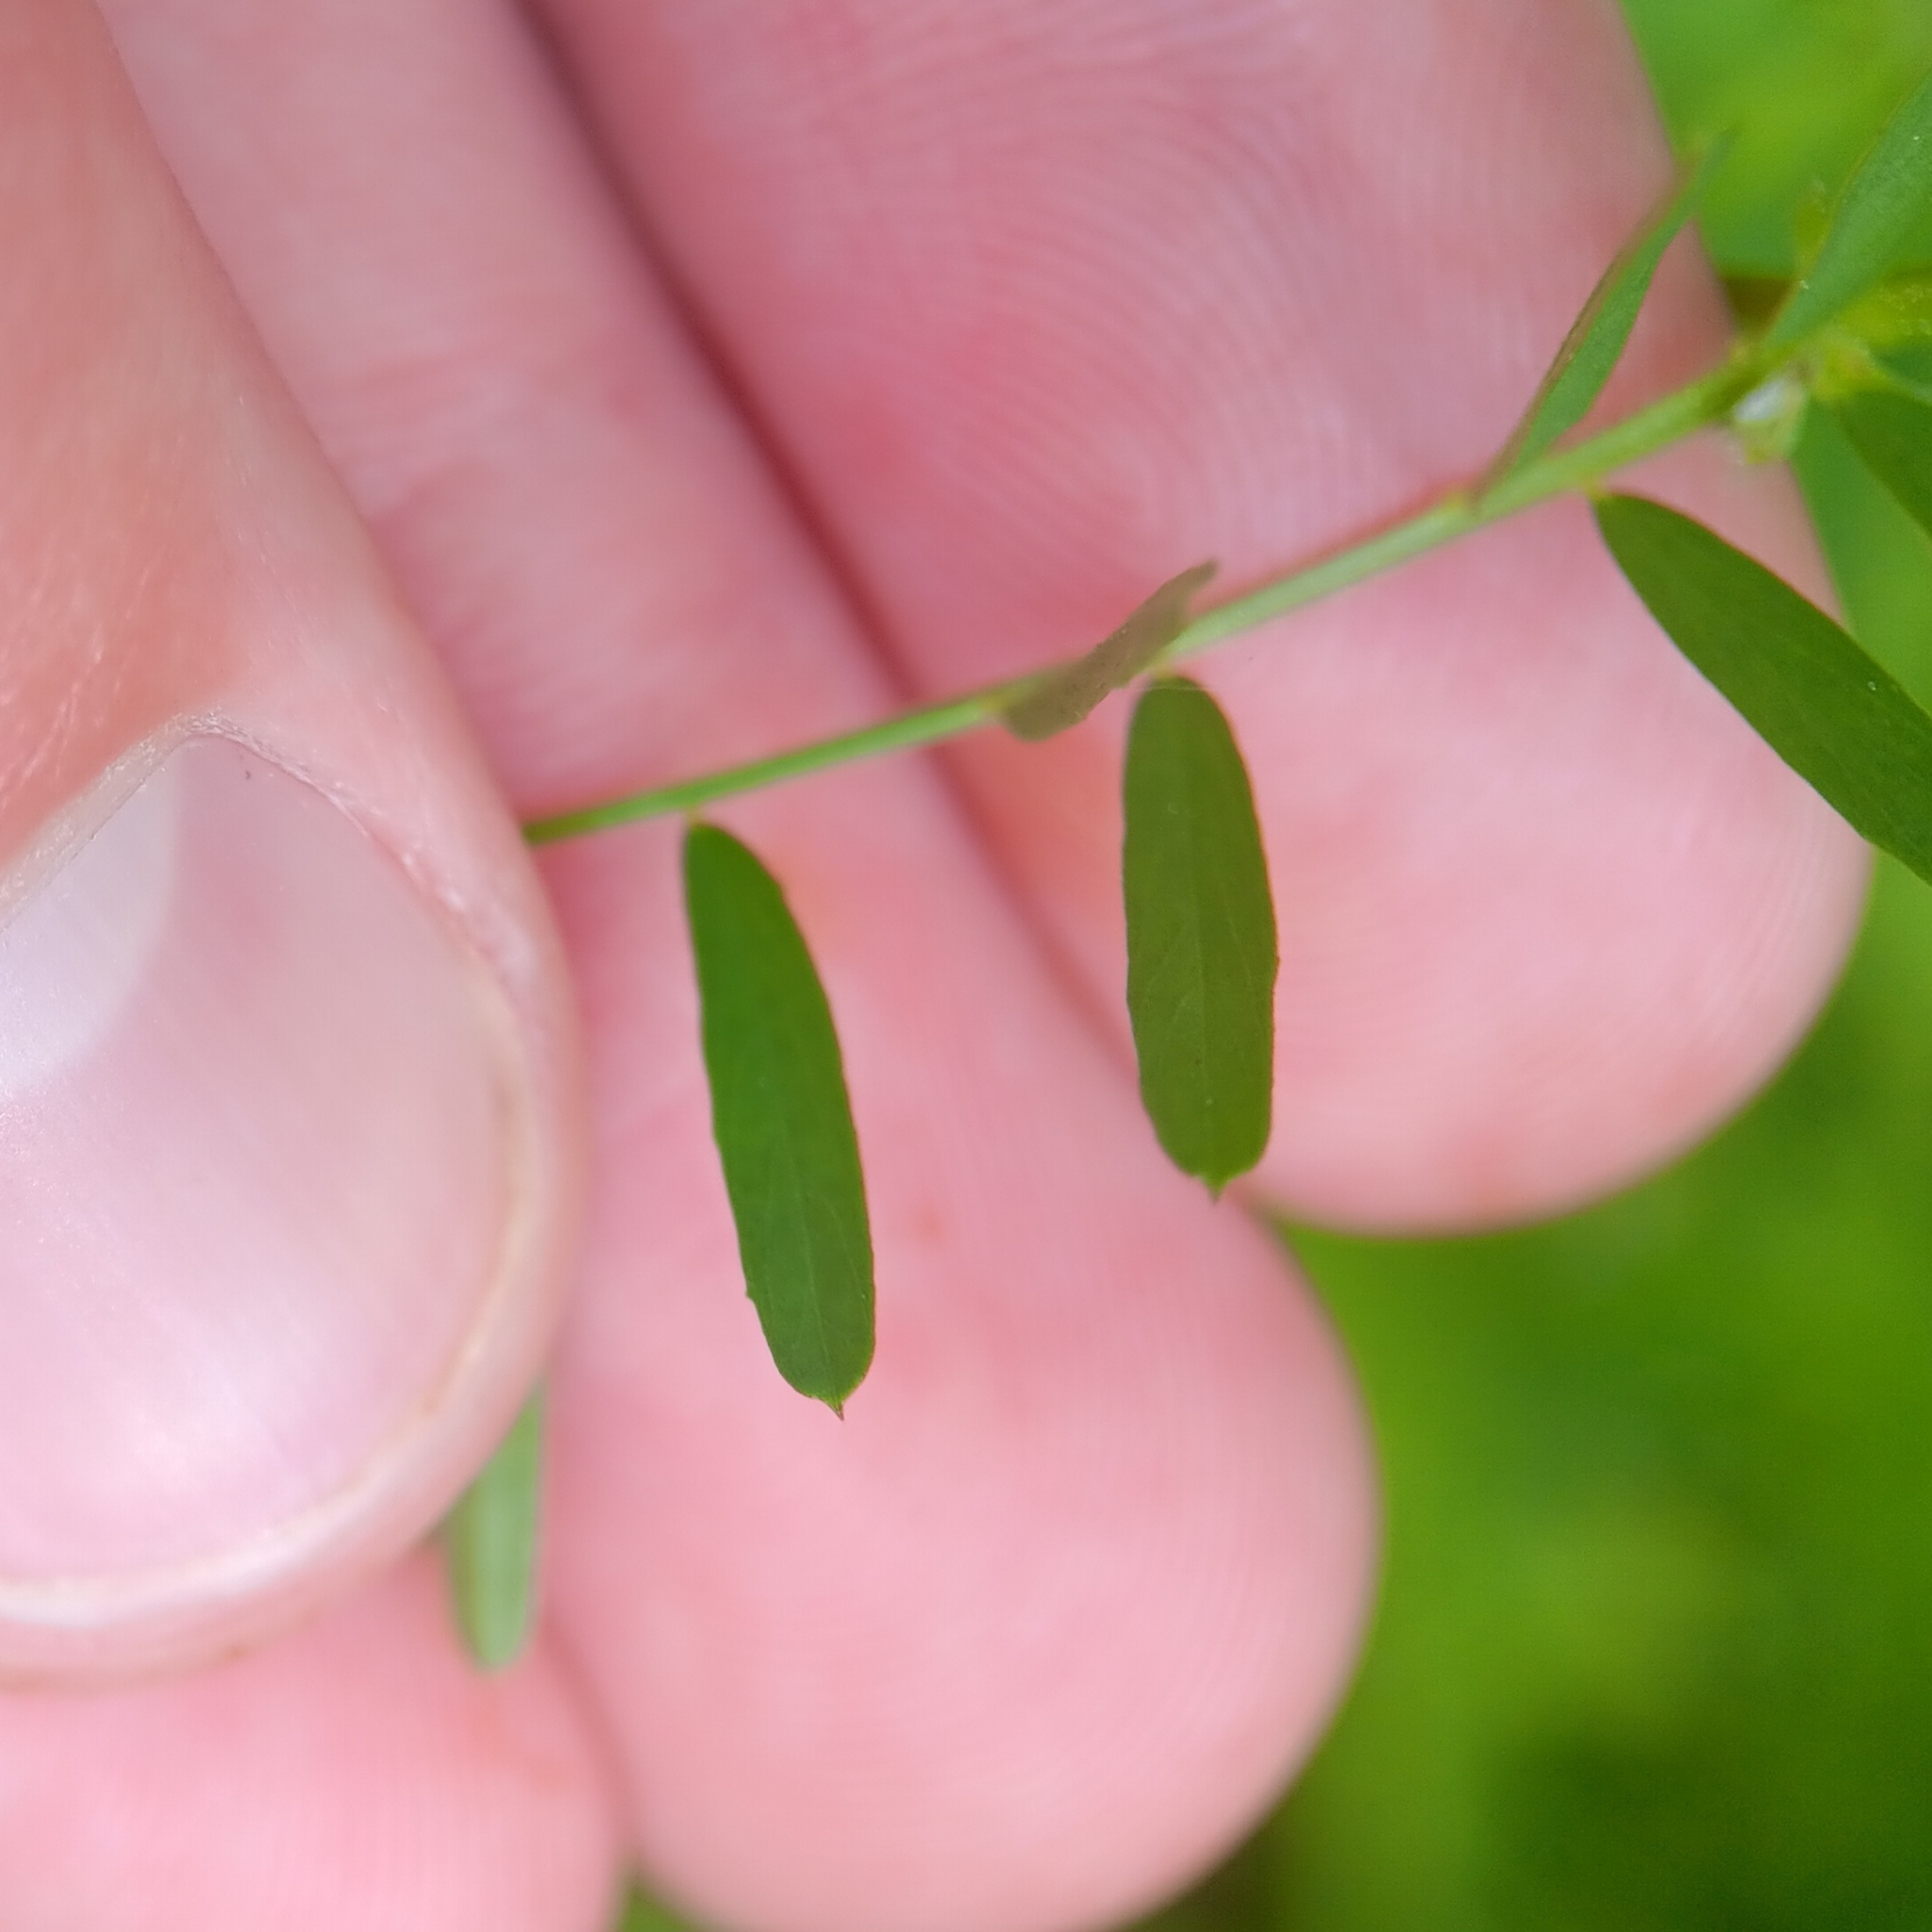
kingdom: Plantae
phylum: Tracheophyta
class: Magnoliopsida
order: Fabales
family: Fabaceae
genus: Vicia
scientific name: Vicia tetrasperma
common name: Smooth tare
